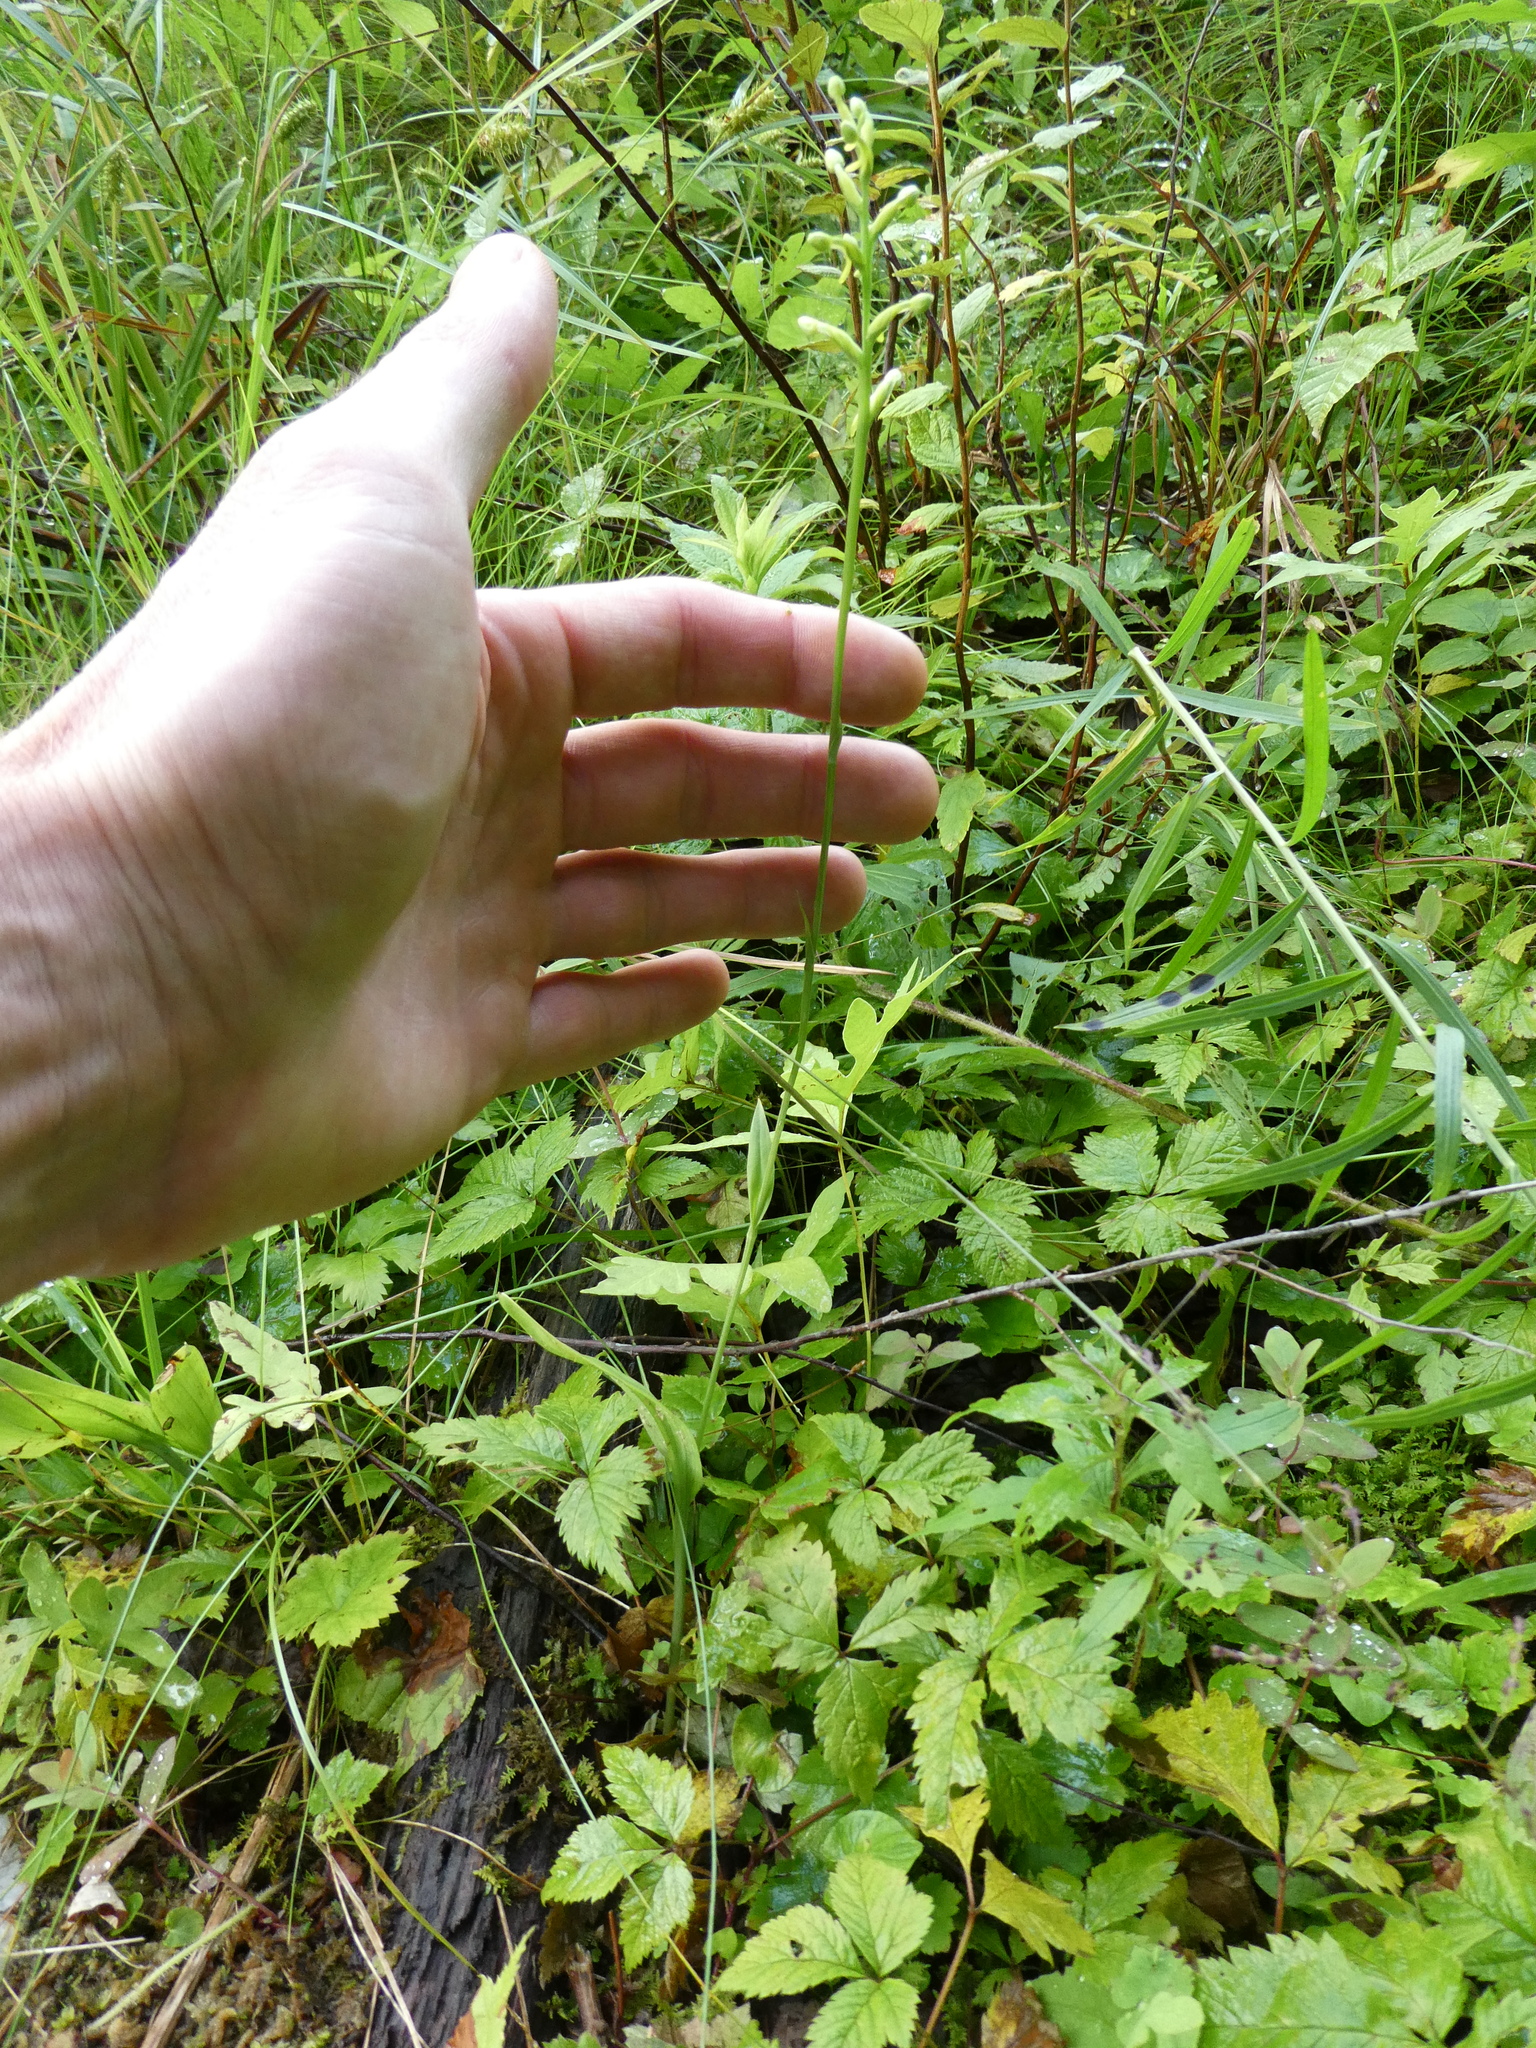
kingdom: Plantae
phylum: Tracheophyta
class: Liliopsida
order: Asparagales
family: Orchidaceae
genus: Platanthera
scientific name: Platanthera clavellata
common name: Club-spur orchid
